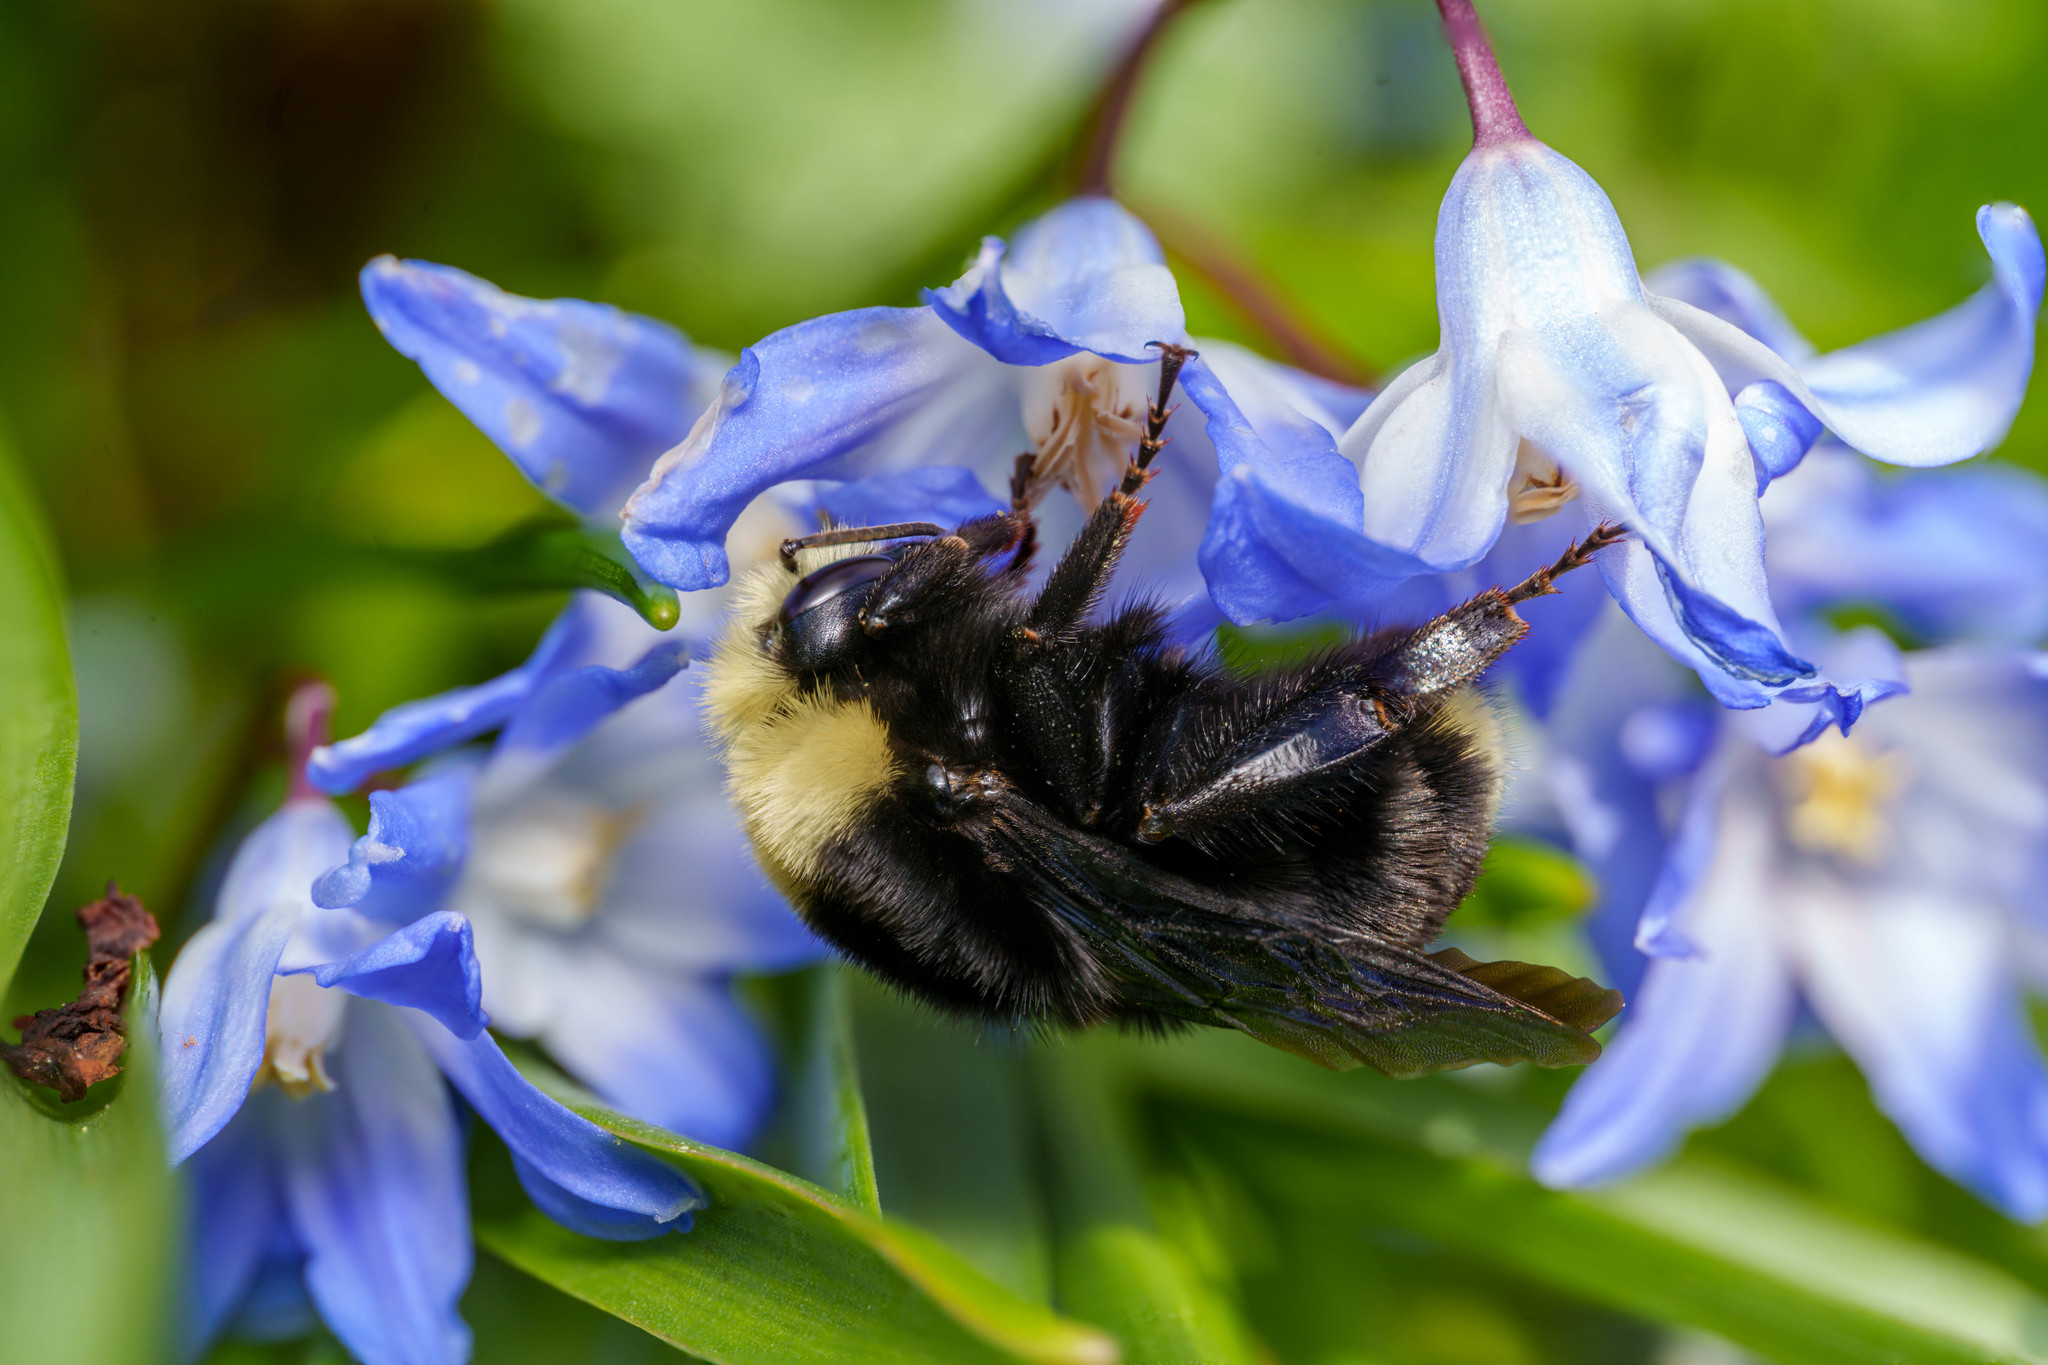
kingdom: Animalia
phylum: Arthropoda
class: Insecta
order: Hymenoptera
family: Apidae
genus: Bombus
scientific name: Bombus vosnesenskii
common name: Vosnesensky bumble bee
